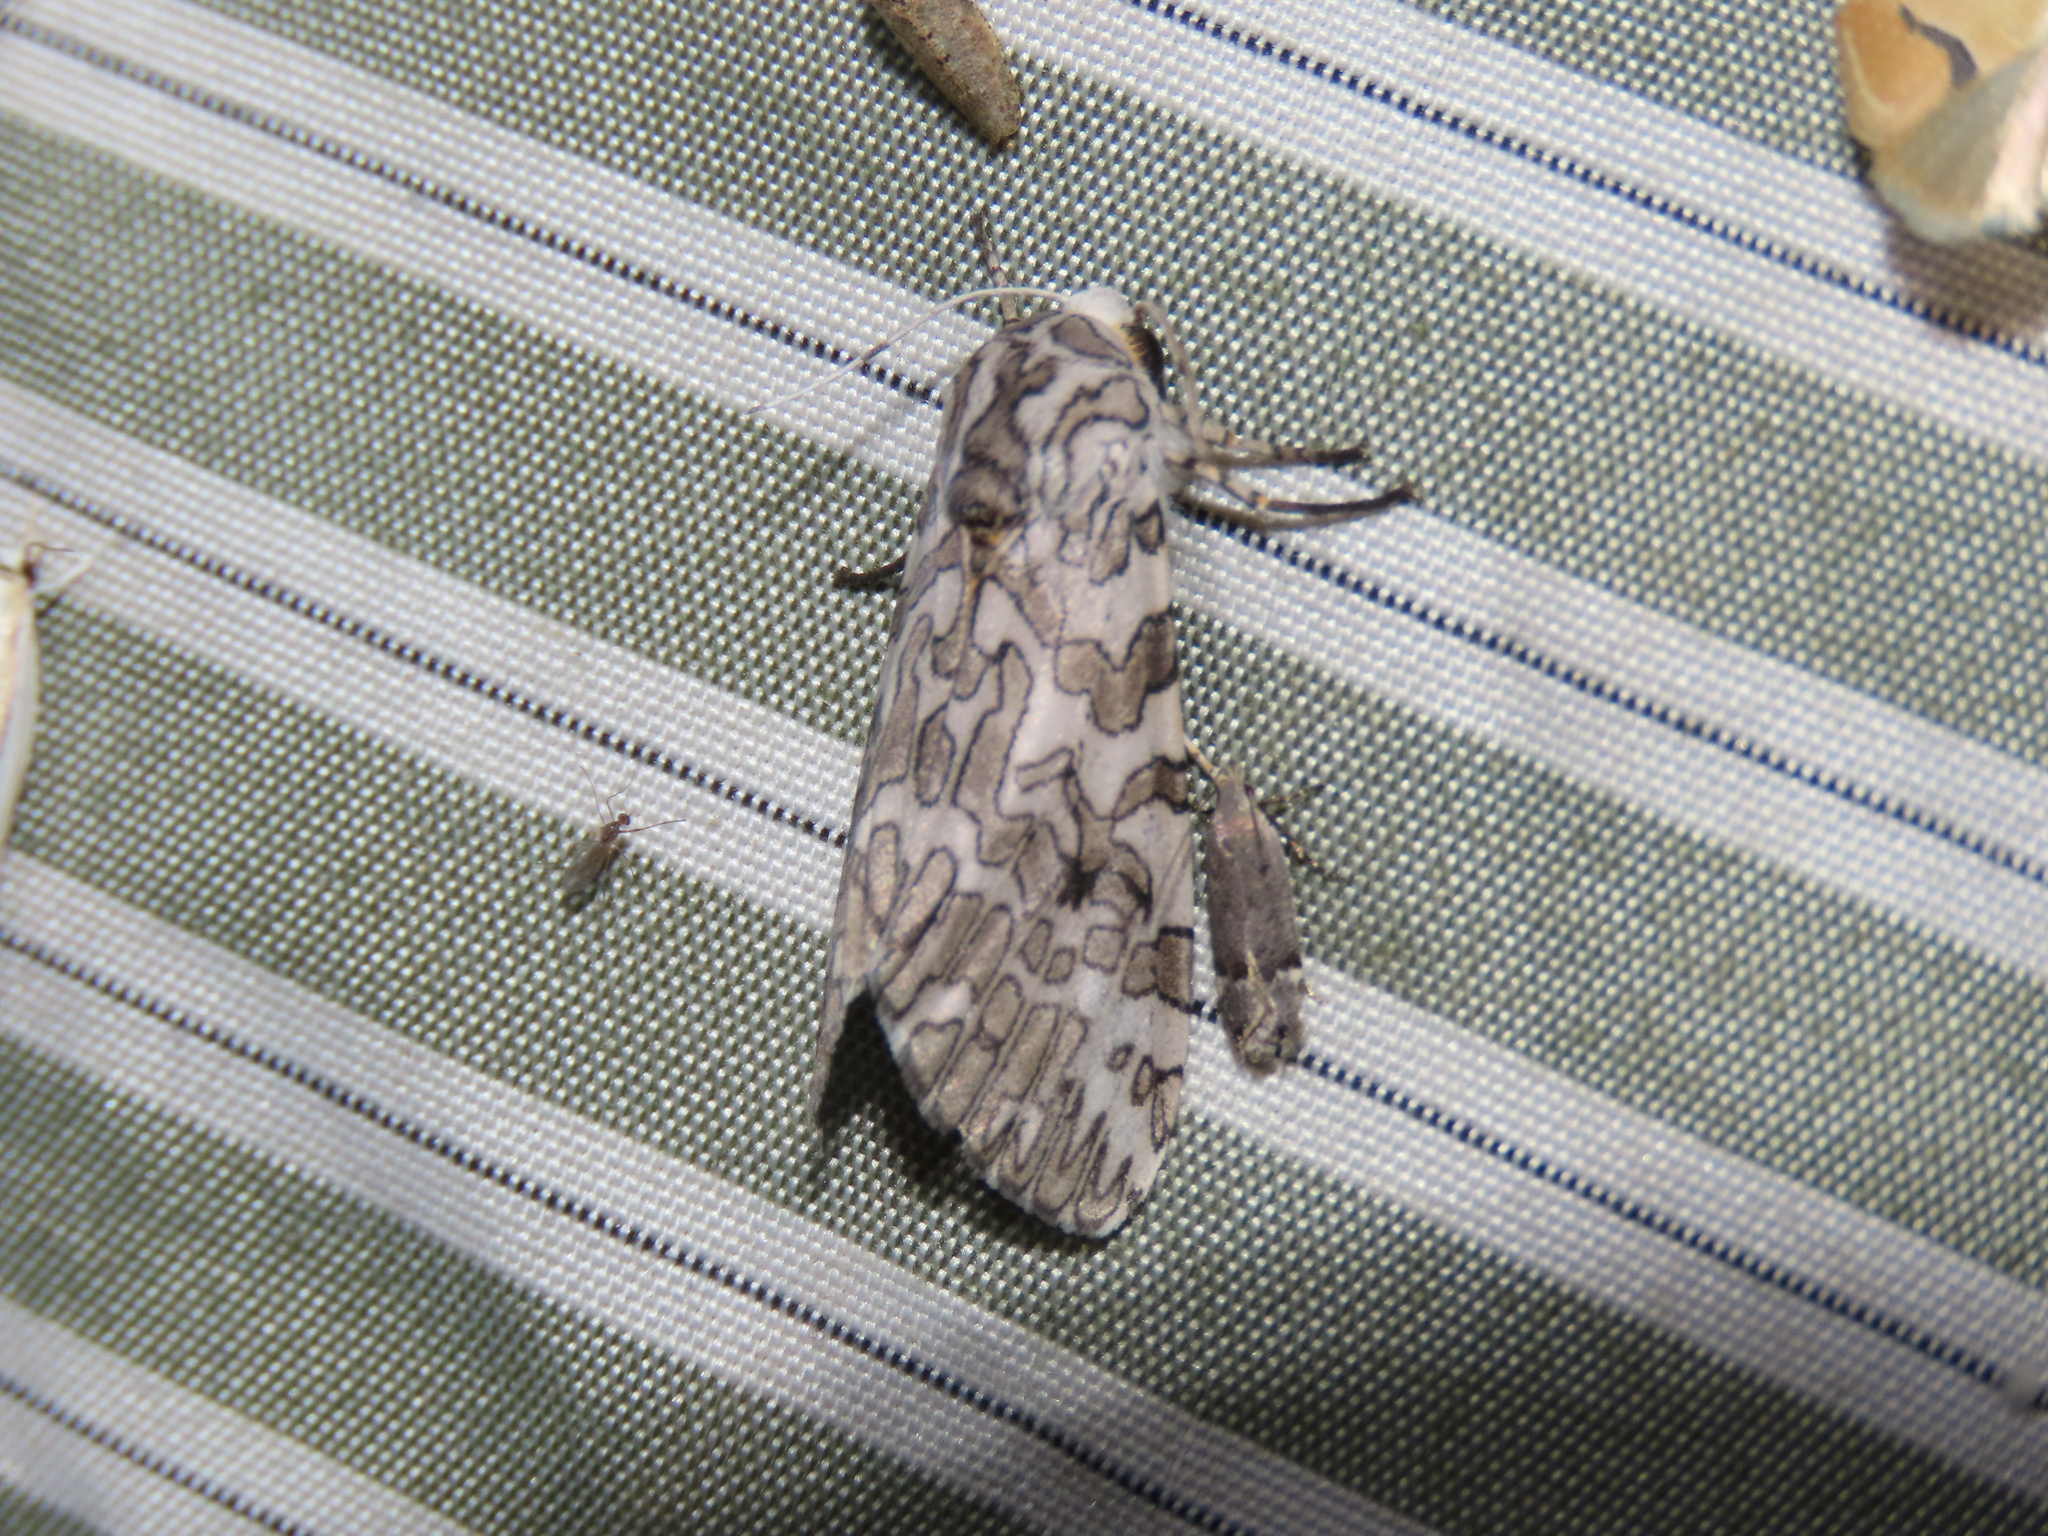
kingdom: Animalia
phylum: Arthropoda
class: Insecta
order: Lepidoptera
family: Erebidae
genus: Hypercompe
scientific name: Hypercompe suffusa
